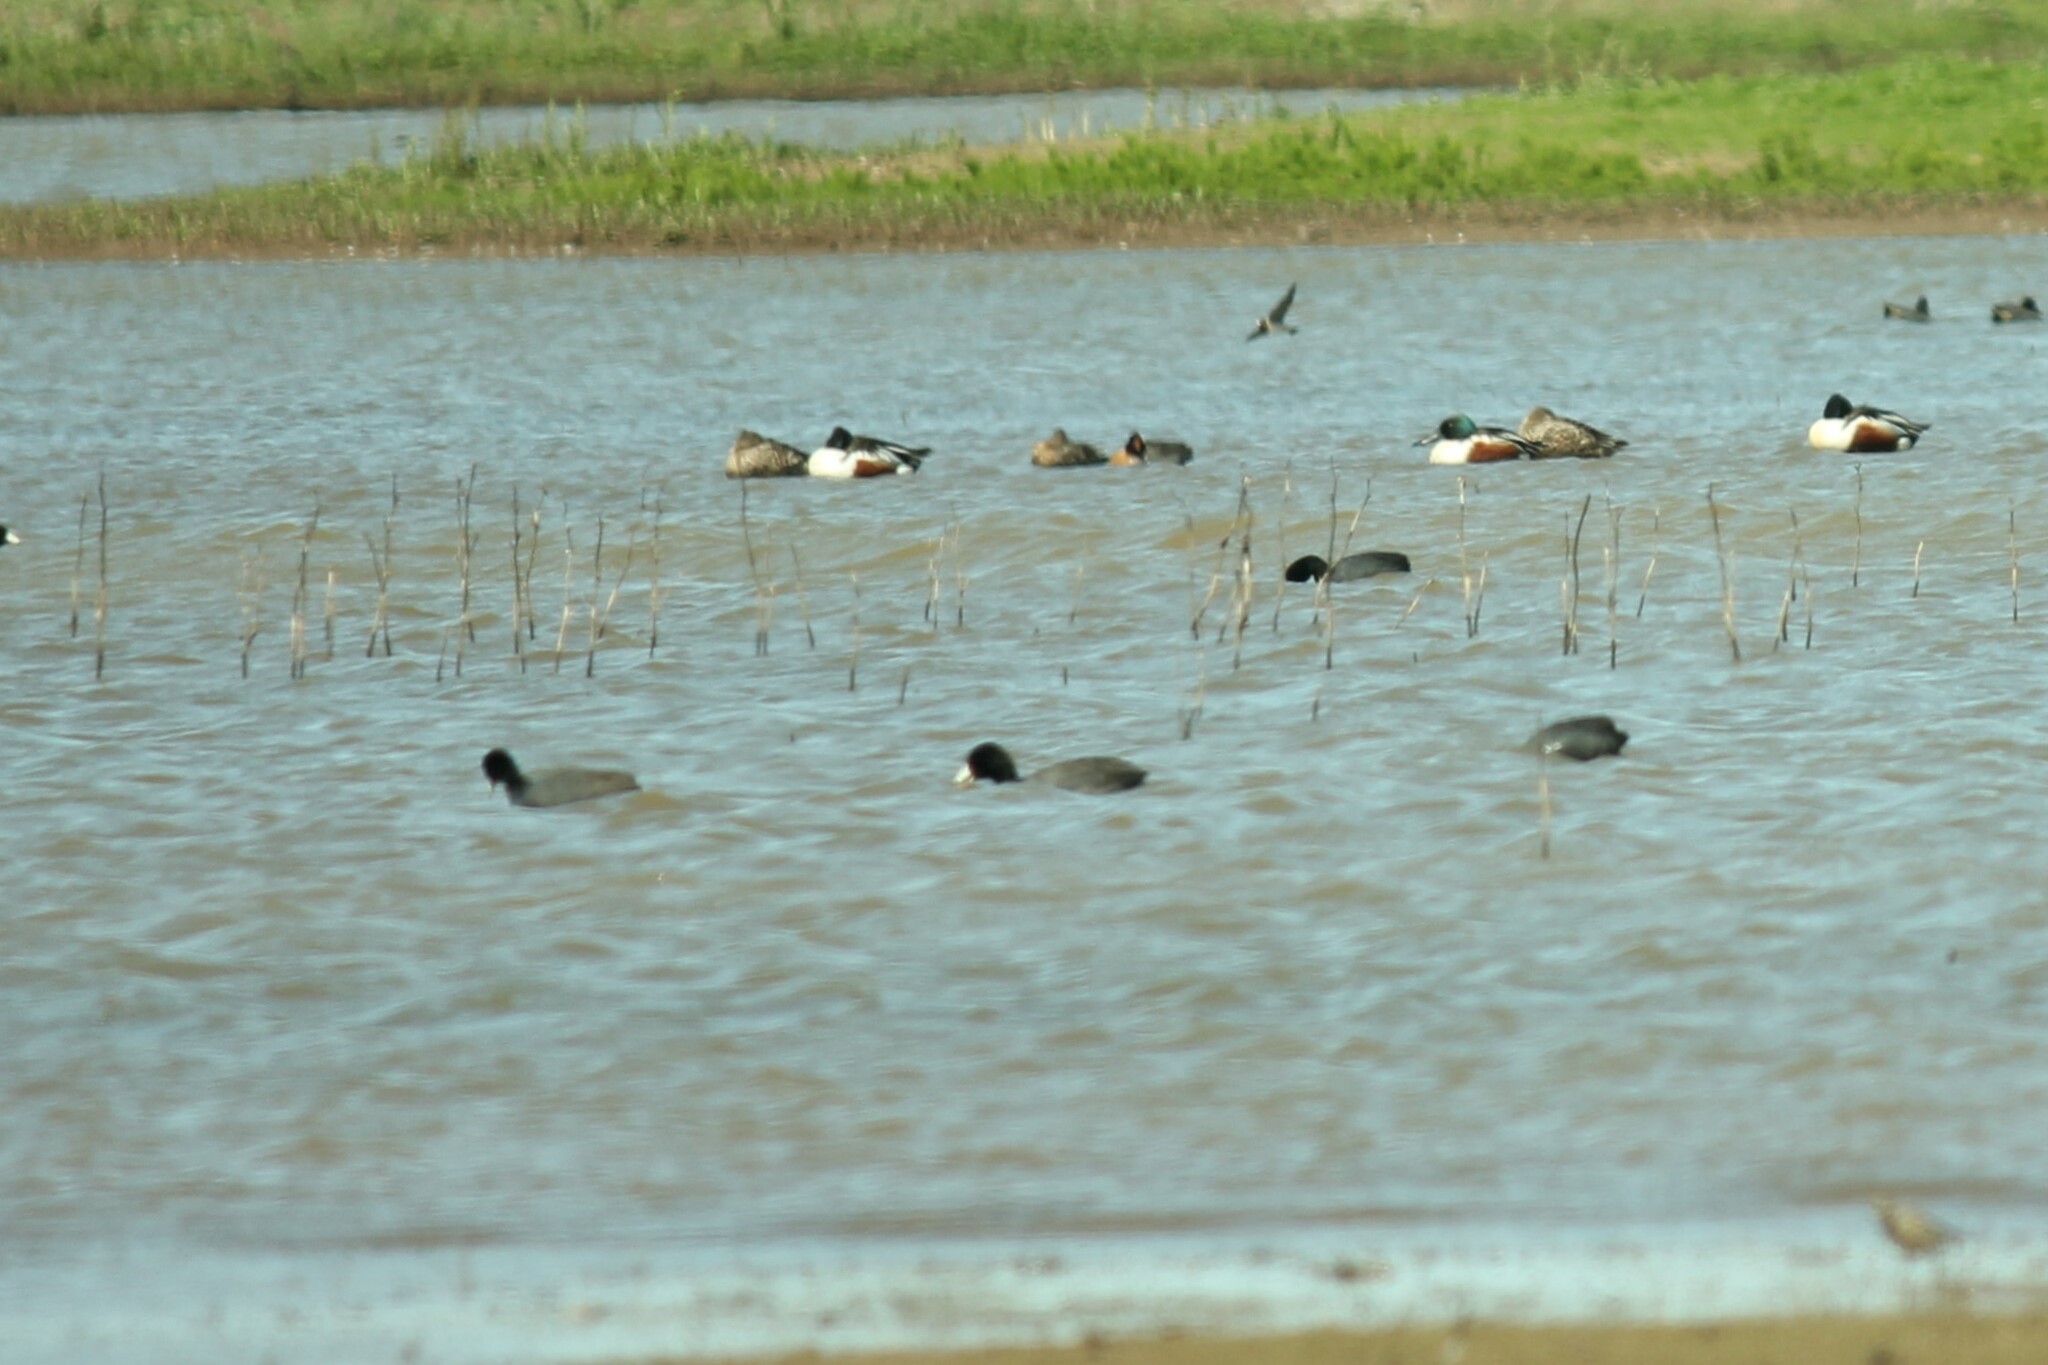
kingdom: Animalia
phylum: Chordata
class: Aves
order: Gruiformes
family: Rallidae
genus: Fulica
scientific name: Fulica americana
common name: American coot
